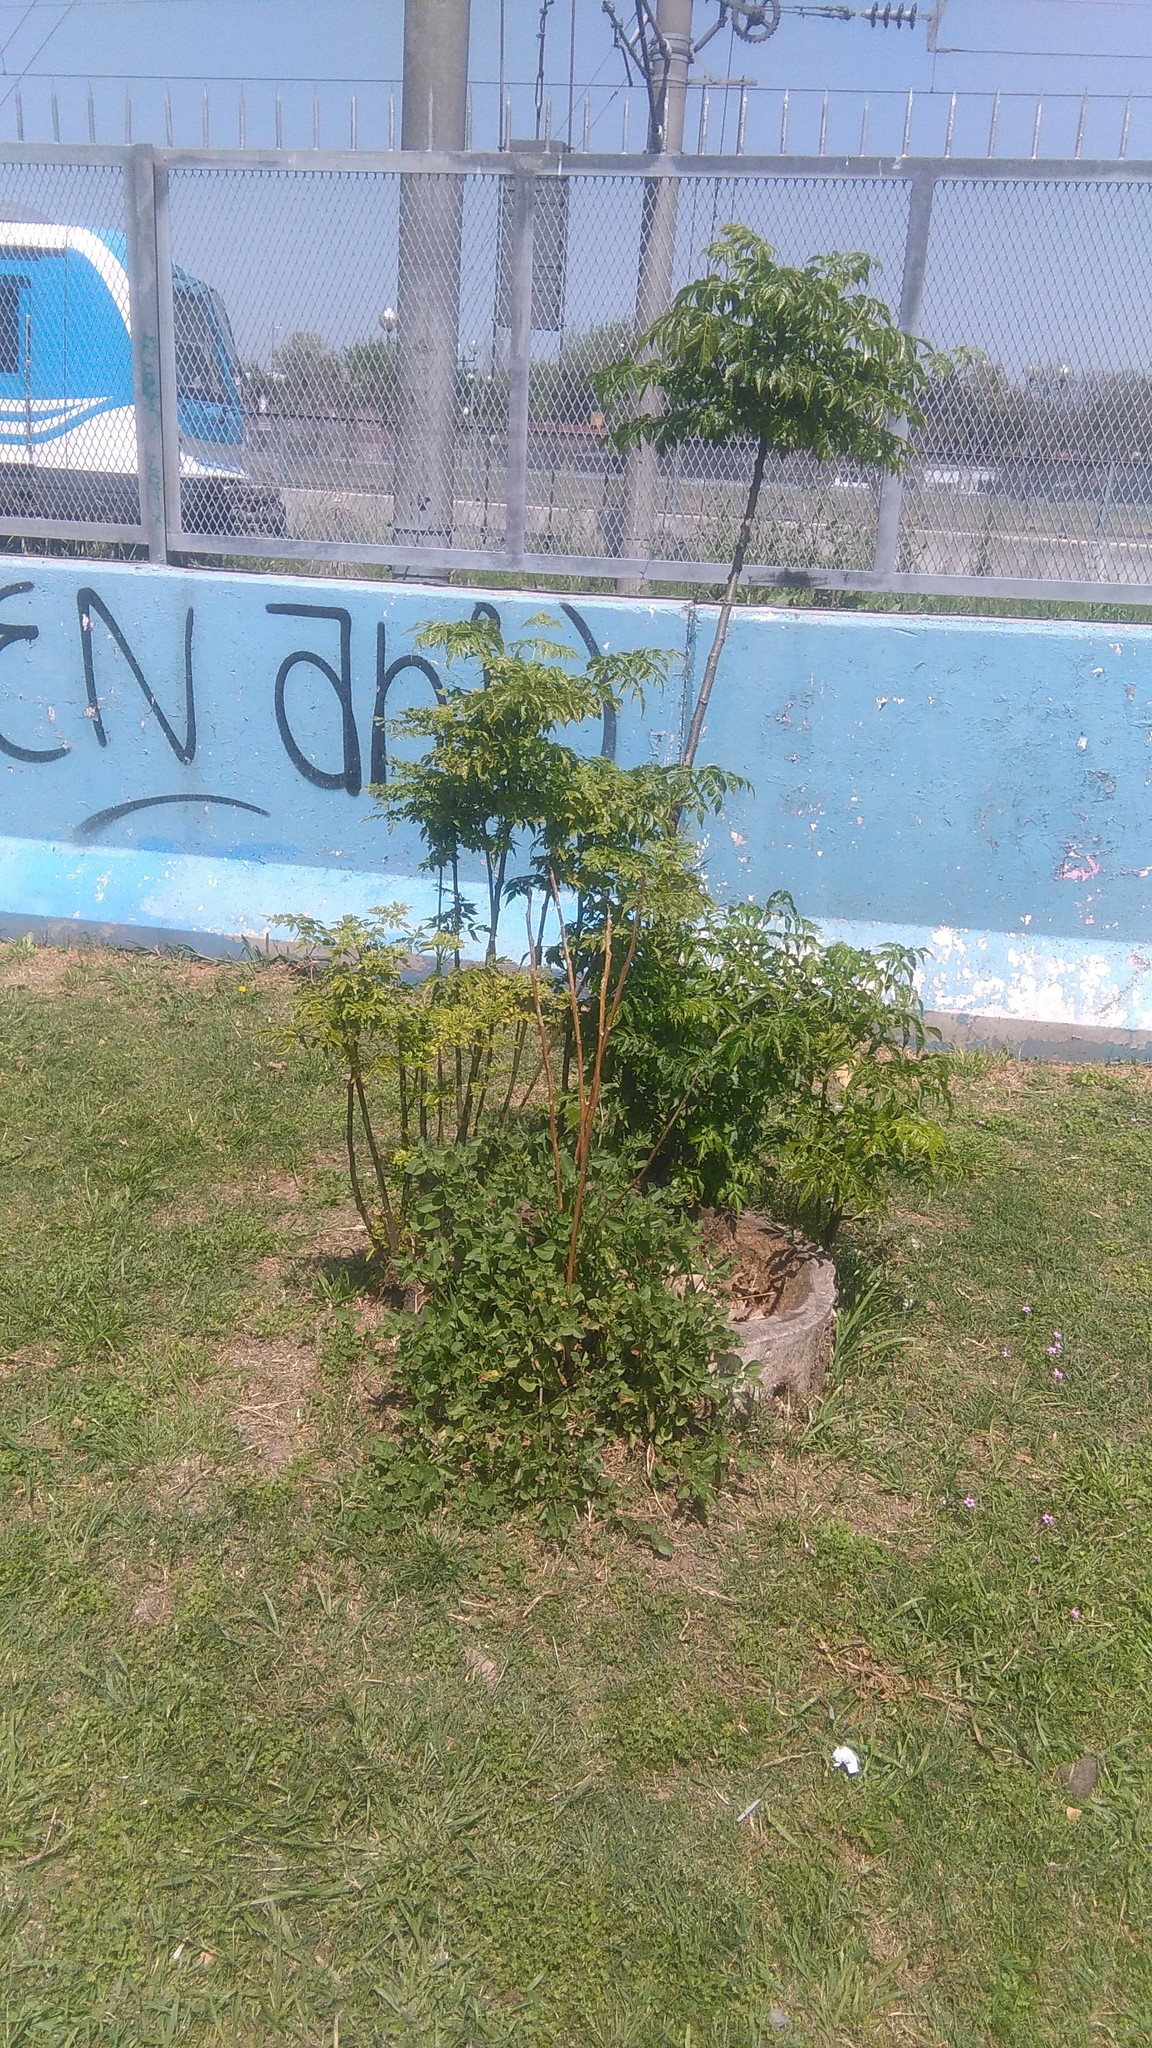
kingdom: Plantae
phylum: Tracheophyta
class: Magnoliopsida
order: Sapindales
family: Meliaceae
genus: Melia
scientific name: Melia azedarach
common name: Chinaberrytree
